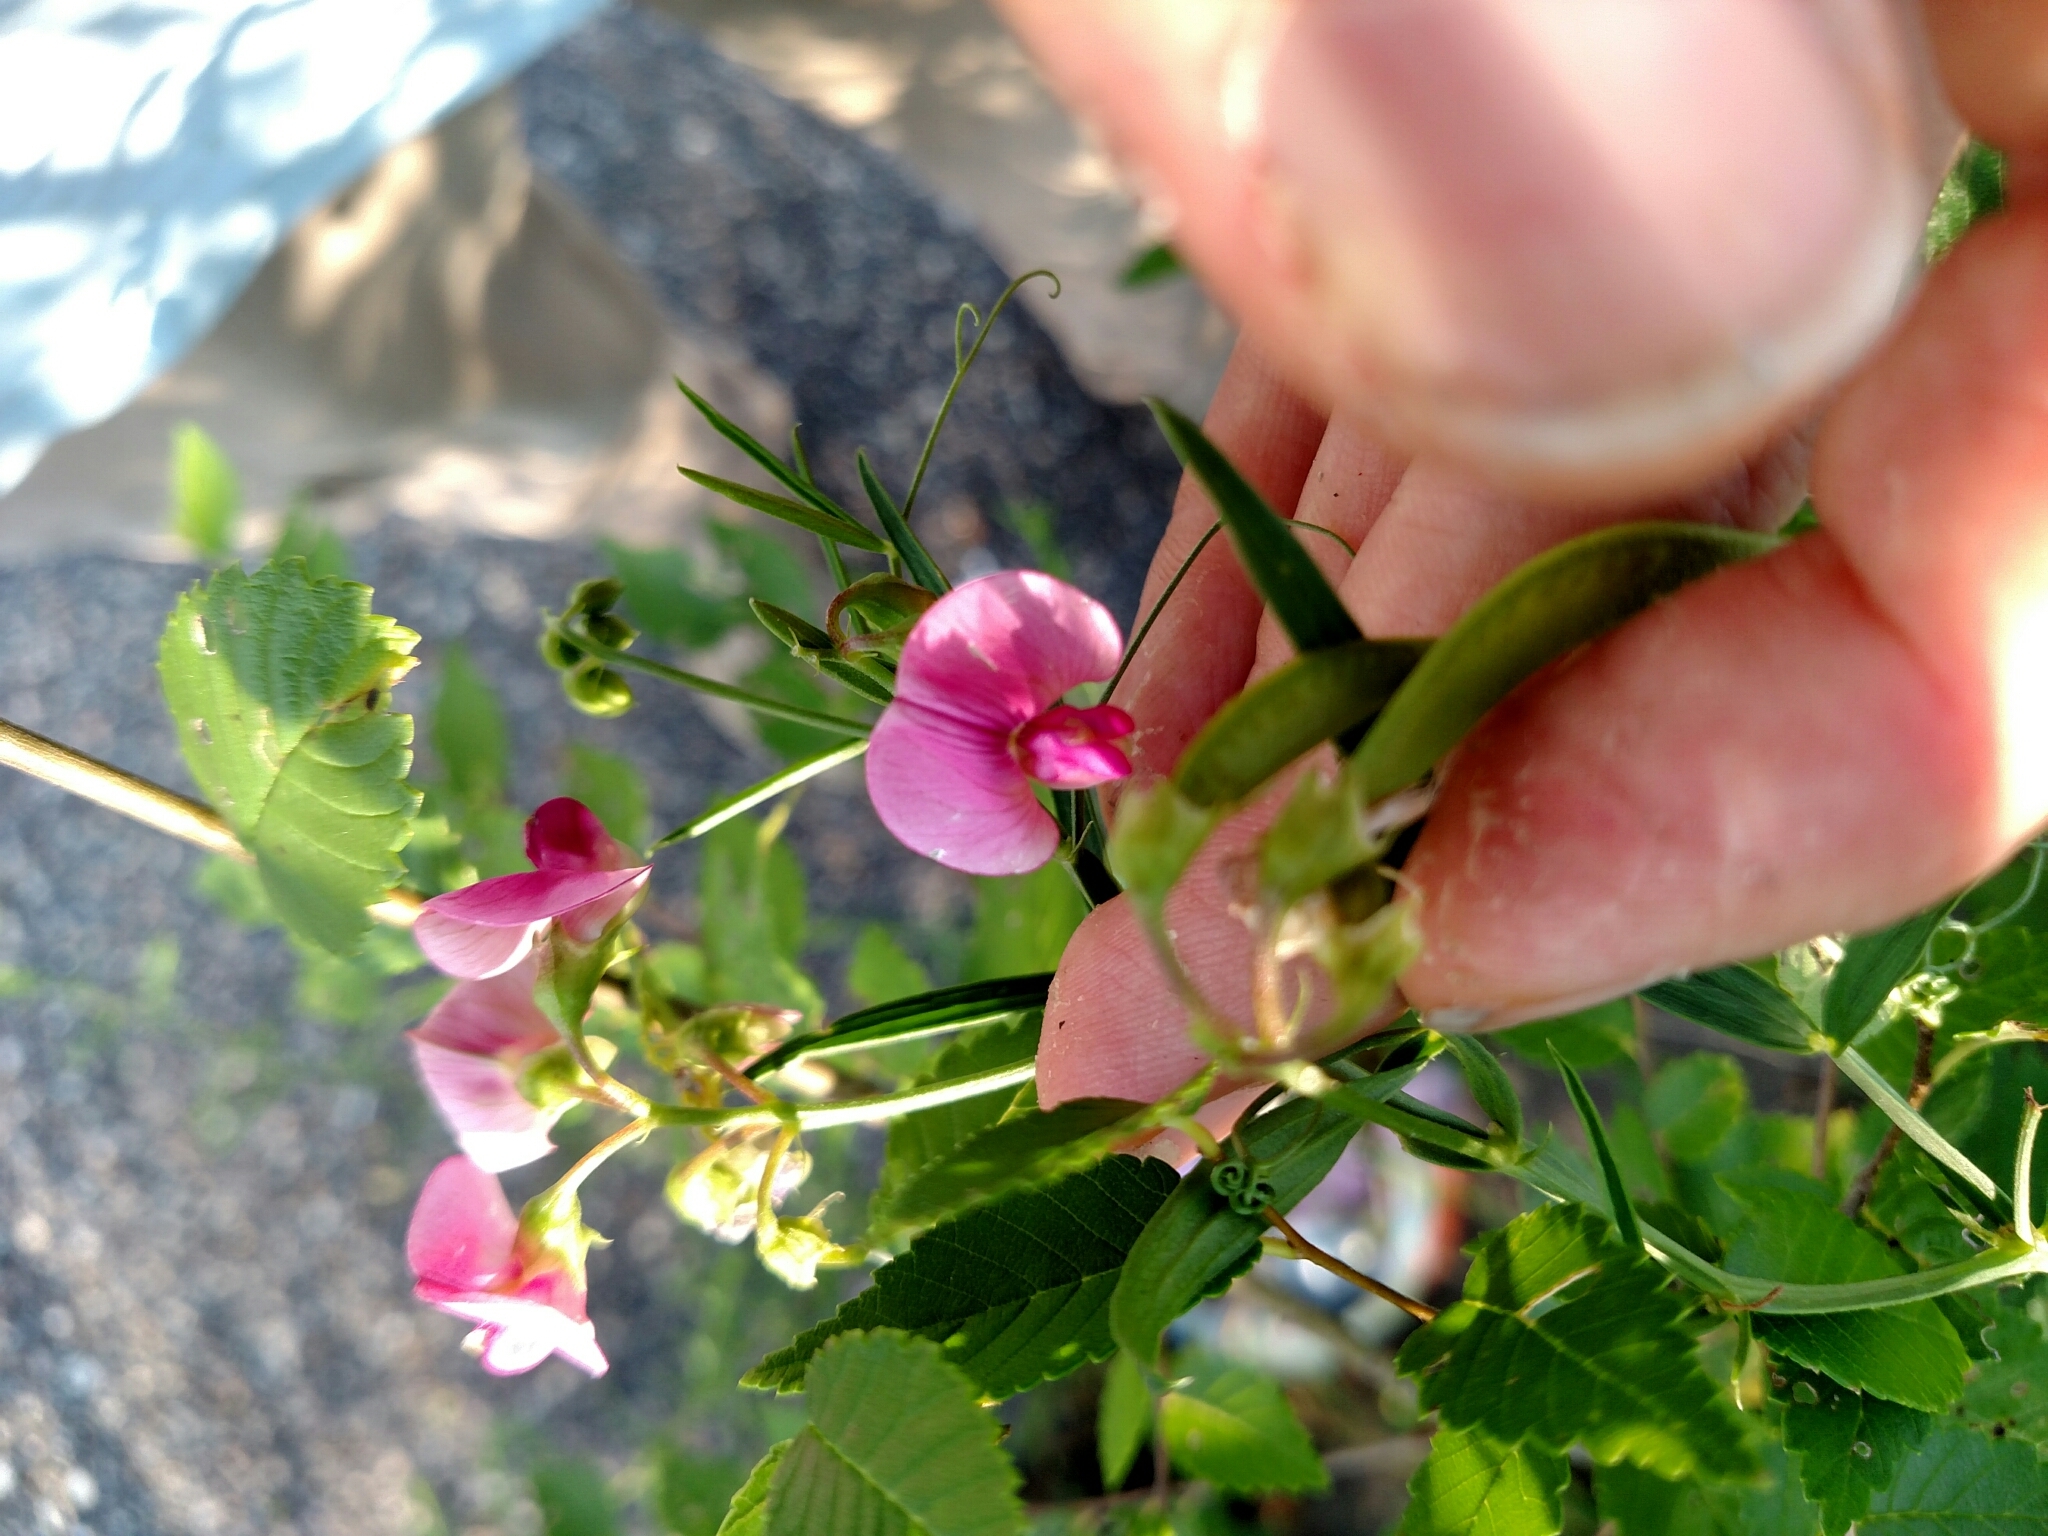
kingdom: Plantae
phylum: Tracheophyta
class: Magnoliopsida
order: Fabales
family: Fabaceae
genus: Lathyrus
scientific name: Lathyrus sylvestris
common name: Flat pea
